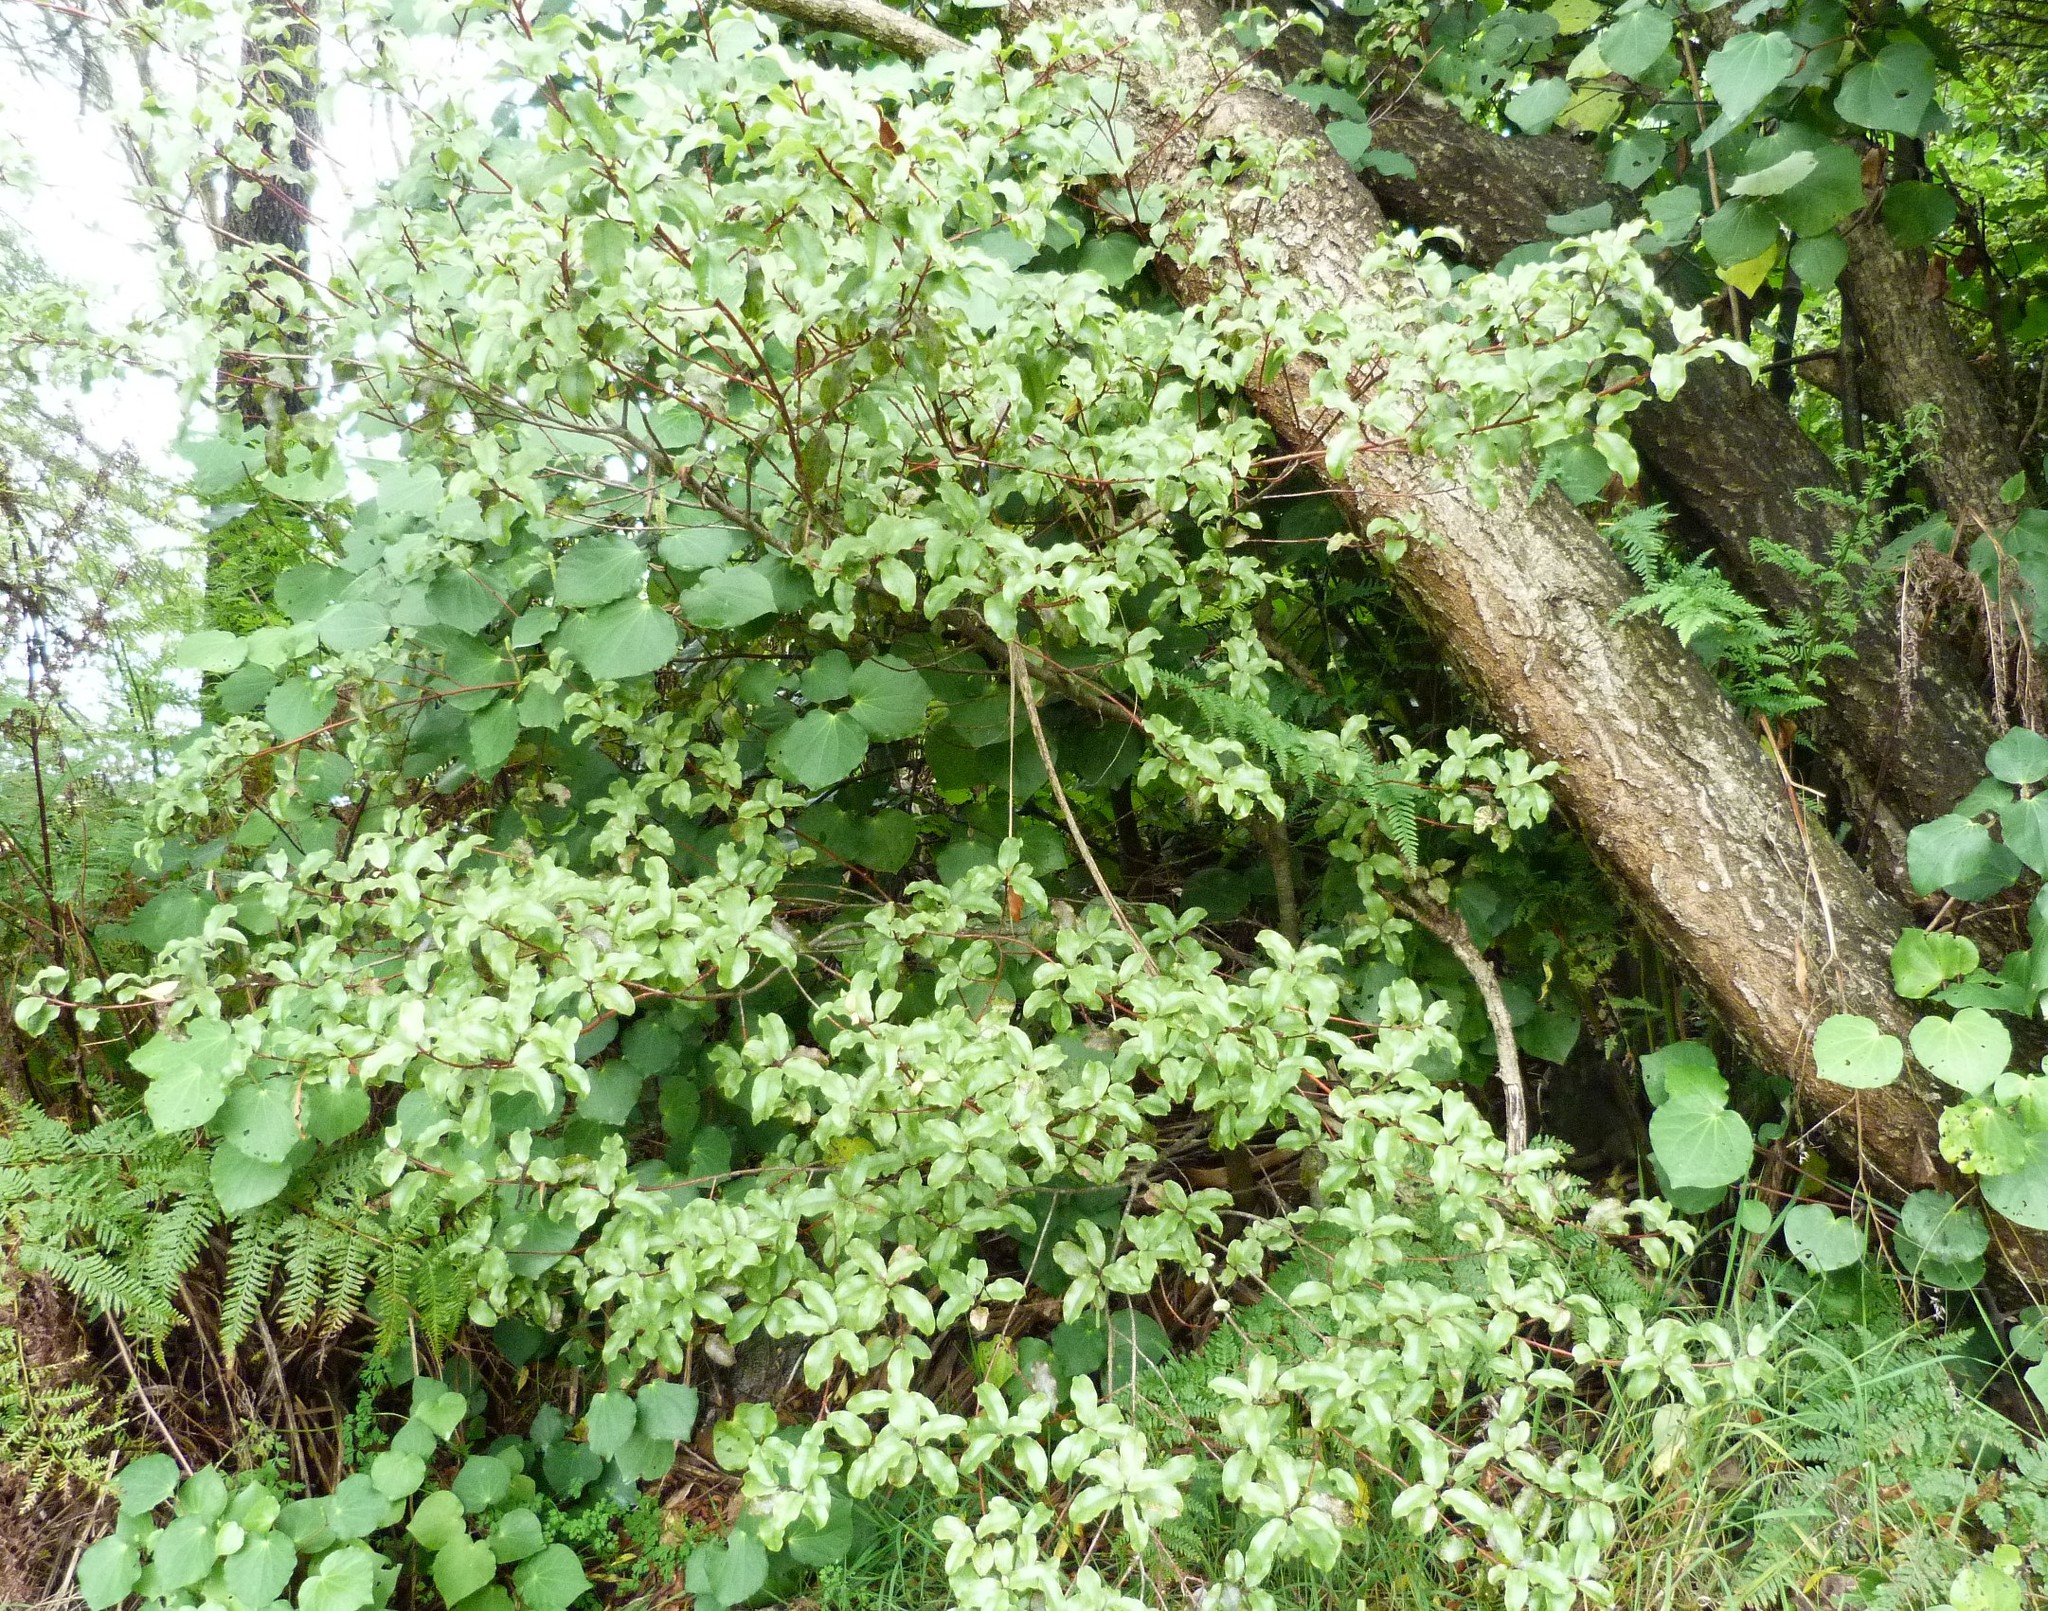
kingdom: Plantae
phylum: Tracheophyta
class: Magnoliopsida
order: Ericales
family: Primulaceae
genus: Myrsine
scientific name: Myrsine australis
